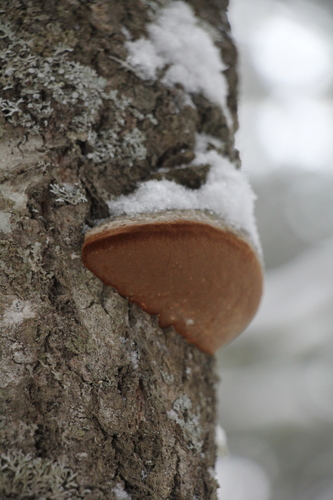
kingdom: Fungi
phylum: Basidiomycota
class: Agaricomycetes
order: Hymenochaetales
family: Hymenochaetaceae
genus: Phellinus
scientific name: Phellinus populicola
